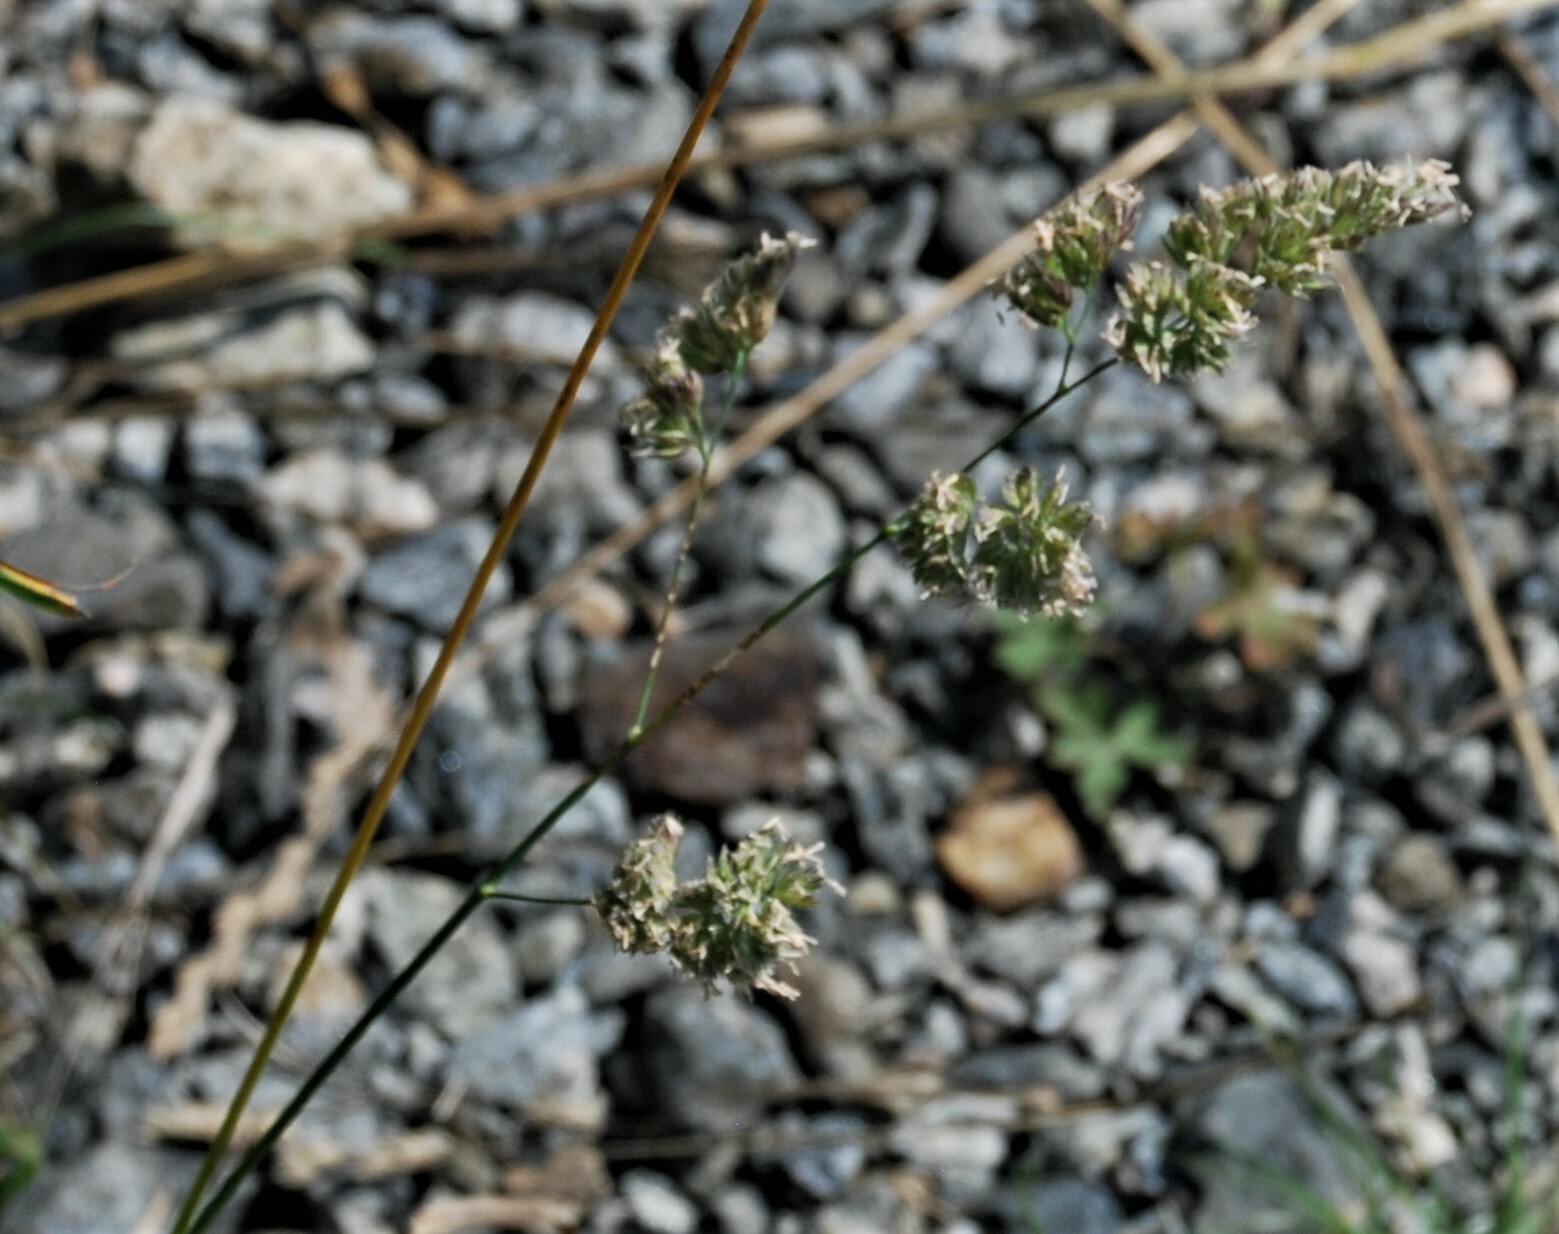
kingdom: Plantae
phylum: Tracheophyta
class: Liliopsida
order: Poales
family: Poaceae
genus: Dactylis
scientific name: Dactylis glomerata
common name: Orchardgrass
